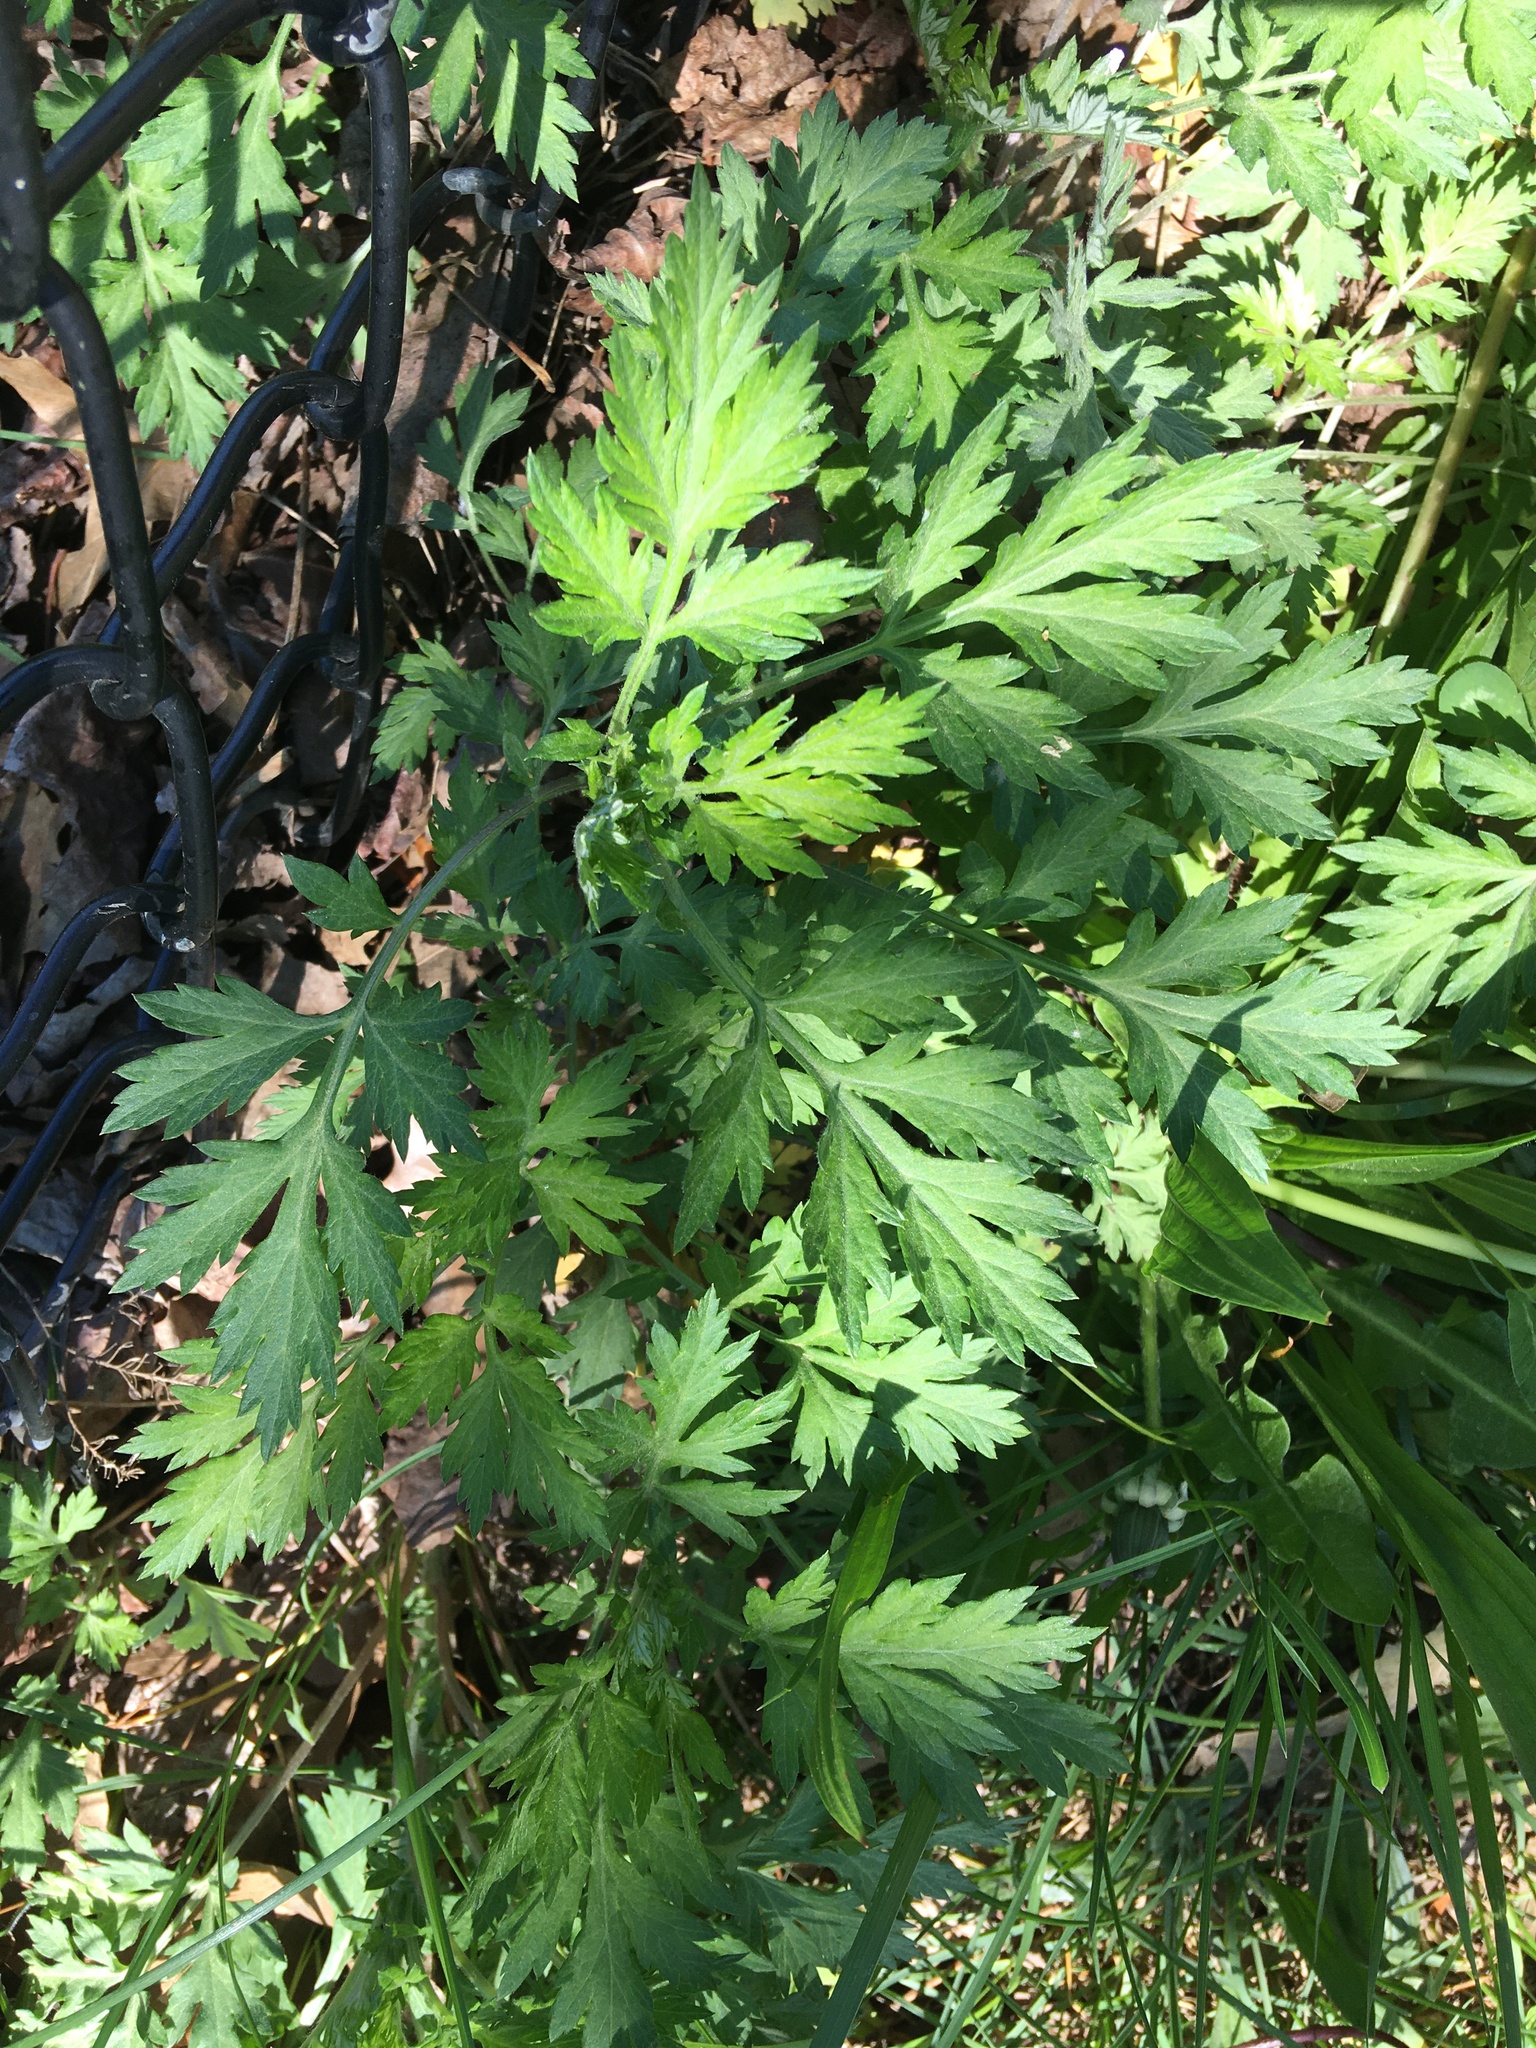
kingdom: Plantae
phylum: Tracheophyta
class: Magnoliopsida
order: Asterales
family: Asteraceae
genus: Artemisia
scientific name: Artemisia vulgaris
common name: Mugwort
